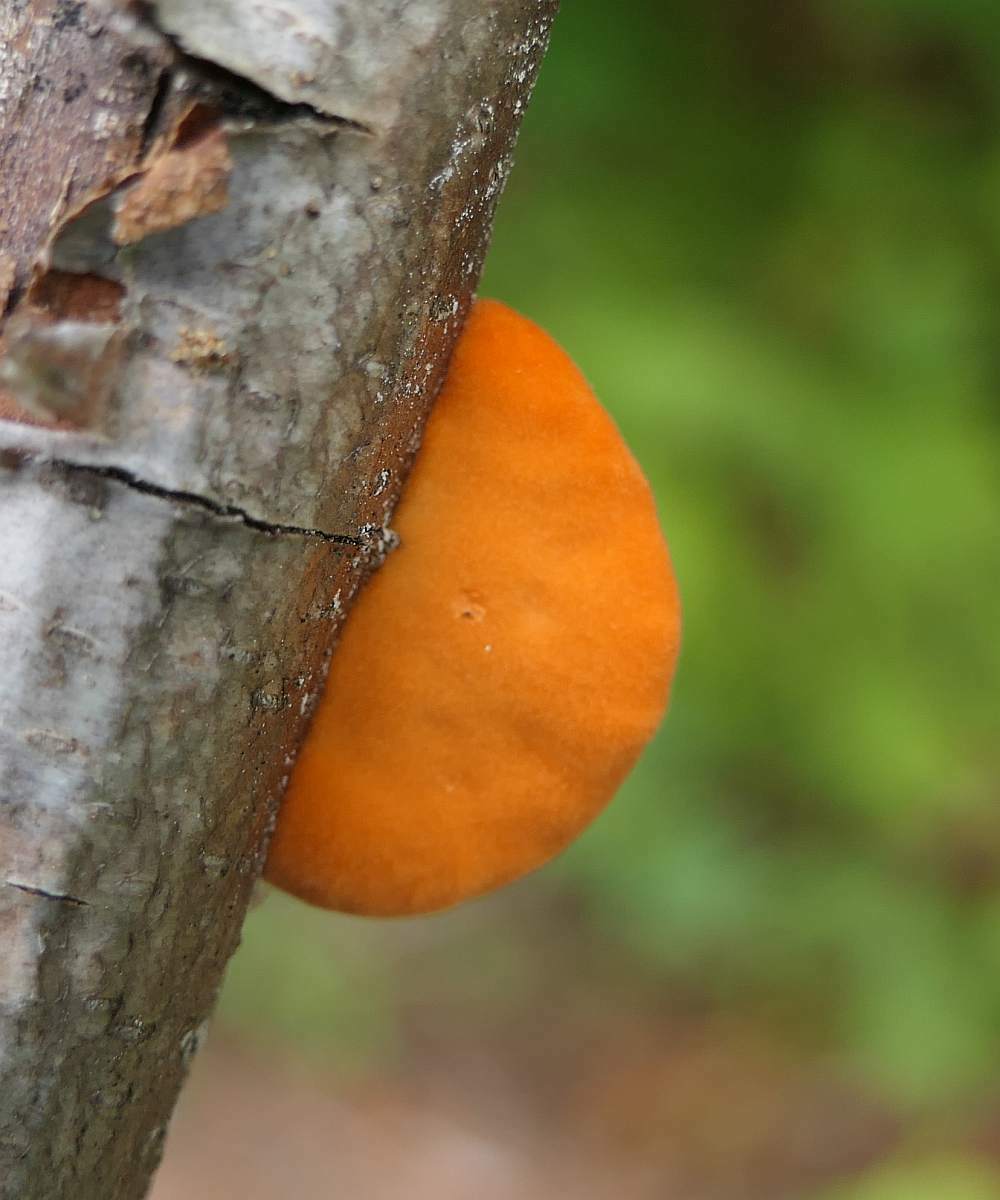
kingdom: Fungi
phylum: Basidiomycota
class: Agaricomycetes
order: Polyporales
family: Polyporaceae
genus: Trametes
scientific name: Trametes cinnabarina
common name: Northern cinnabar polypore
